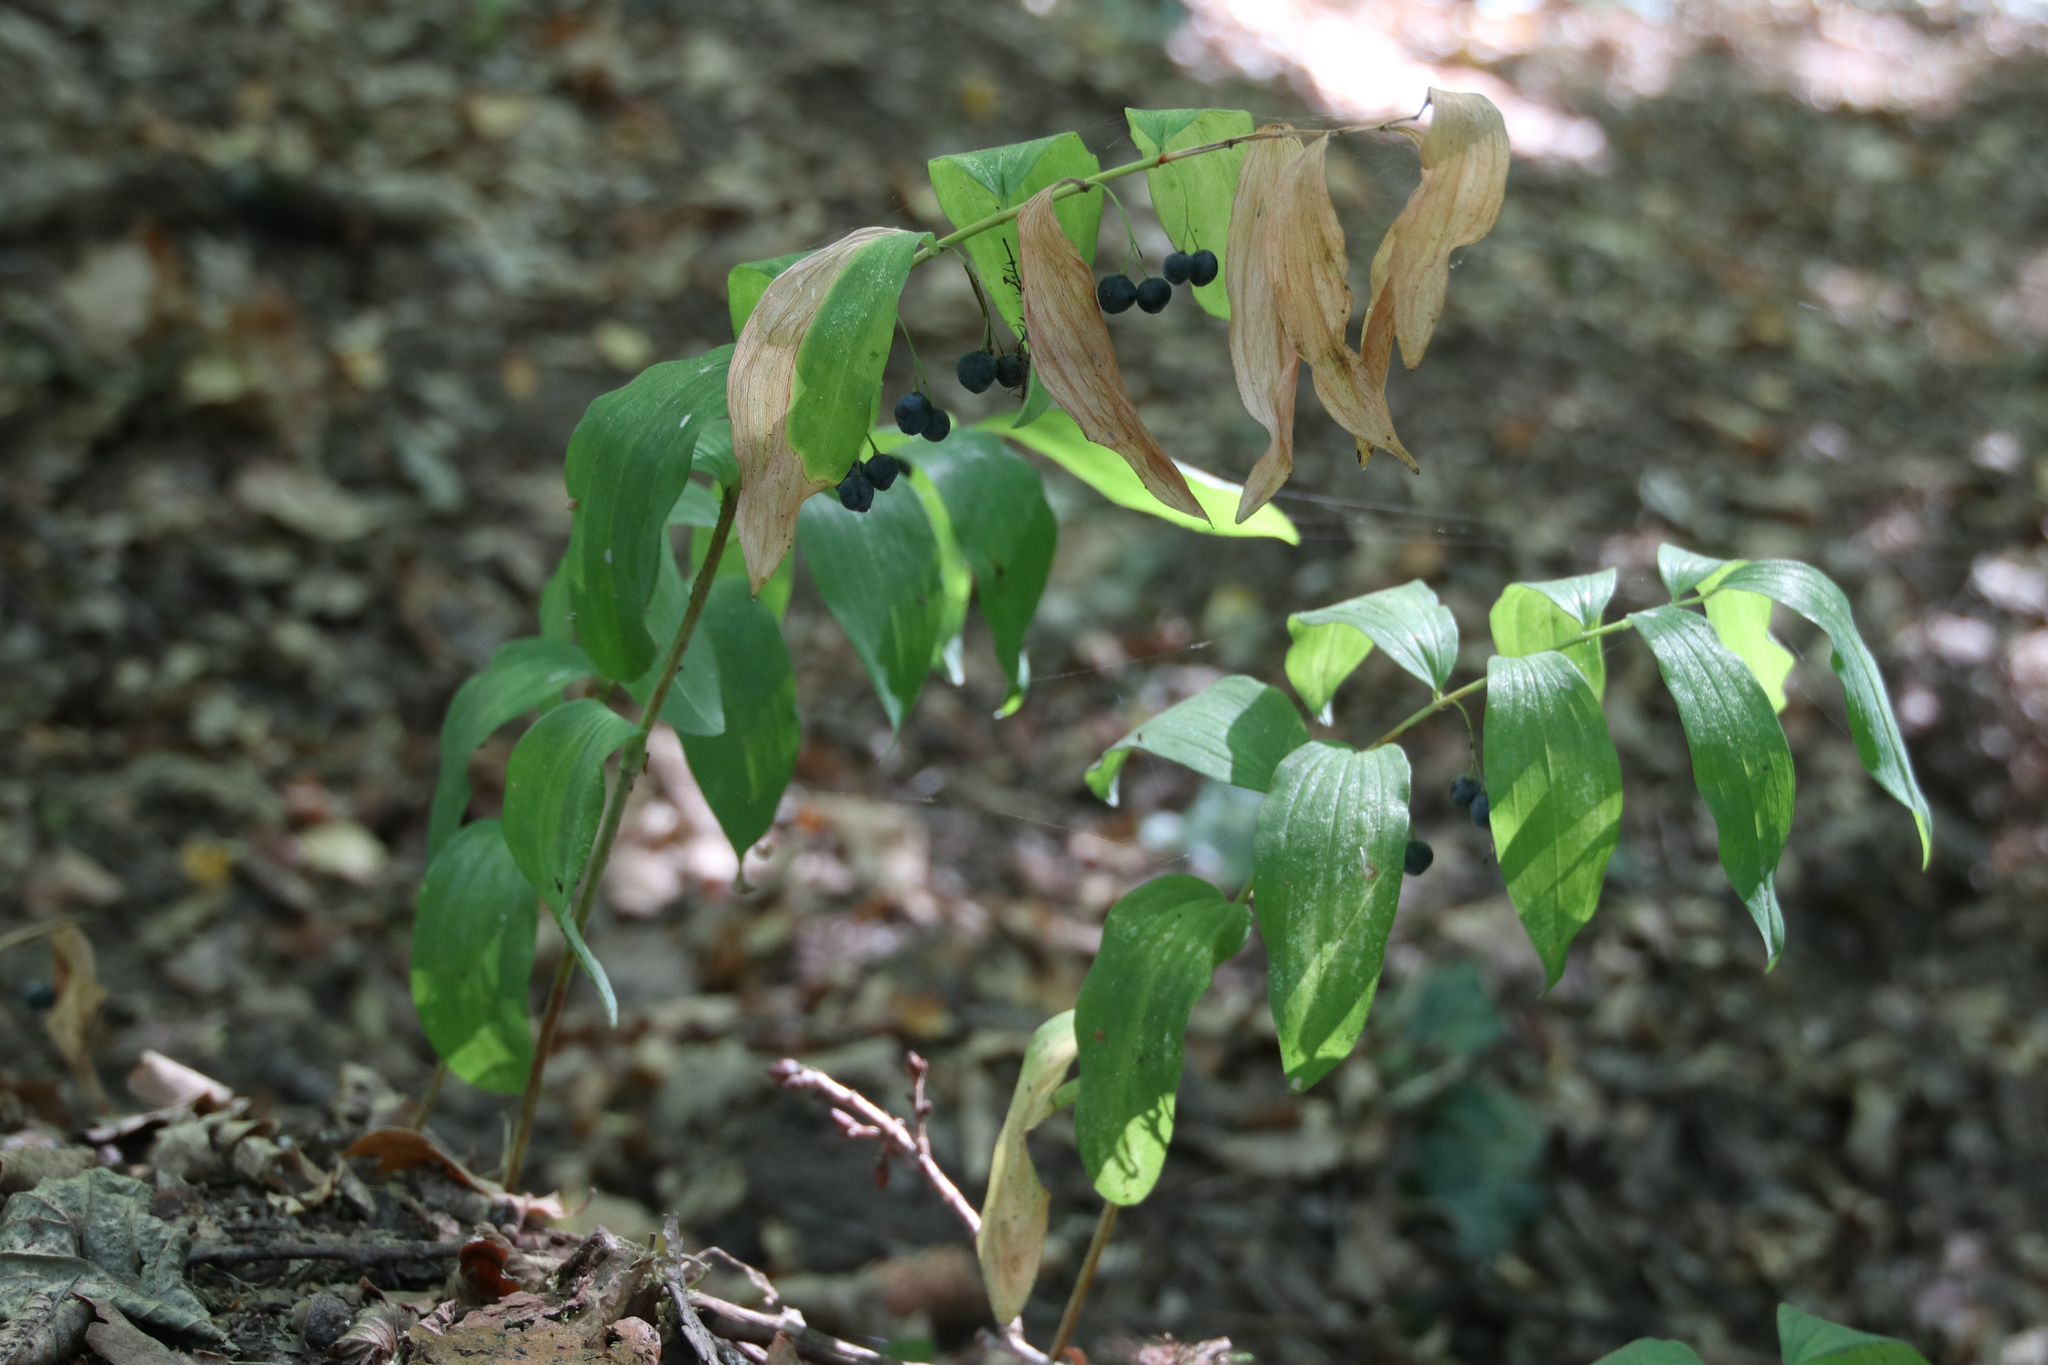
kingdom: Plantae
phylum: Tracheophyta
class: Liliopsida
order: Asparagales
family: Asparagaceae
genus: Polygonatum
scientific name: Polygonatum multiflorum
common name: Solomon's-seal
